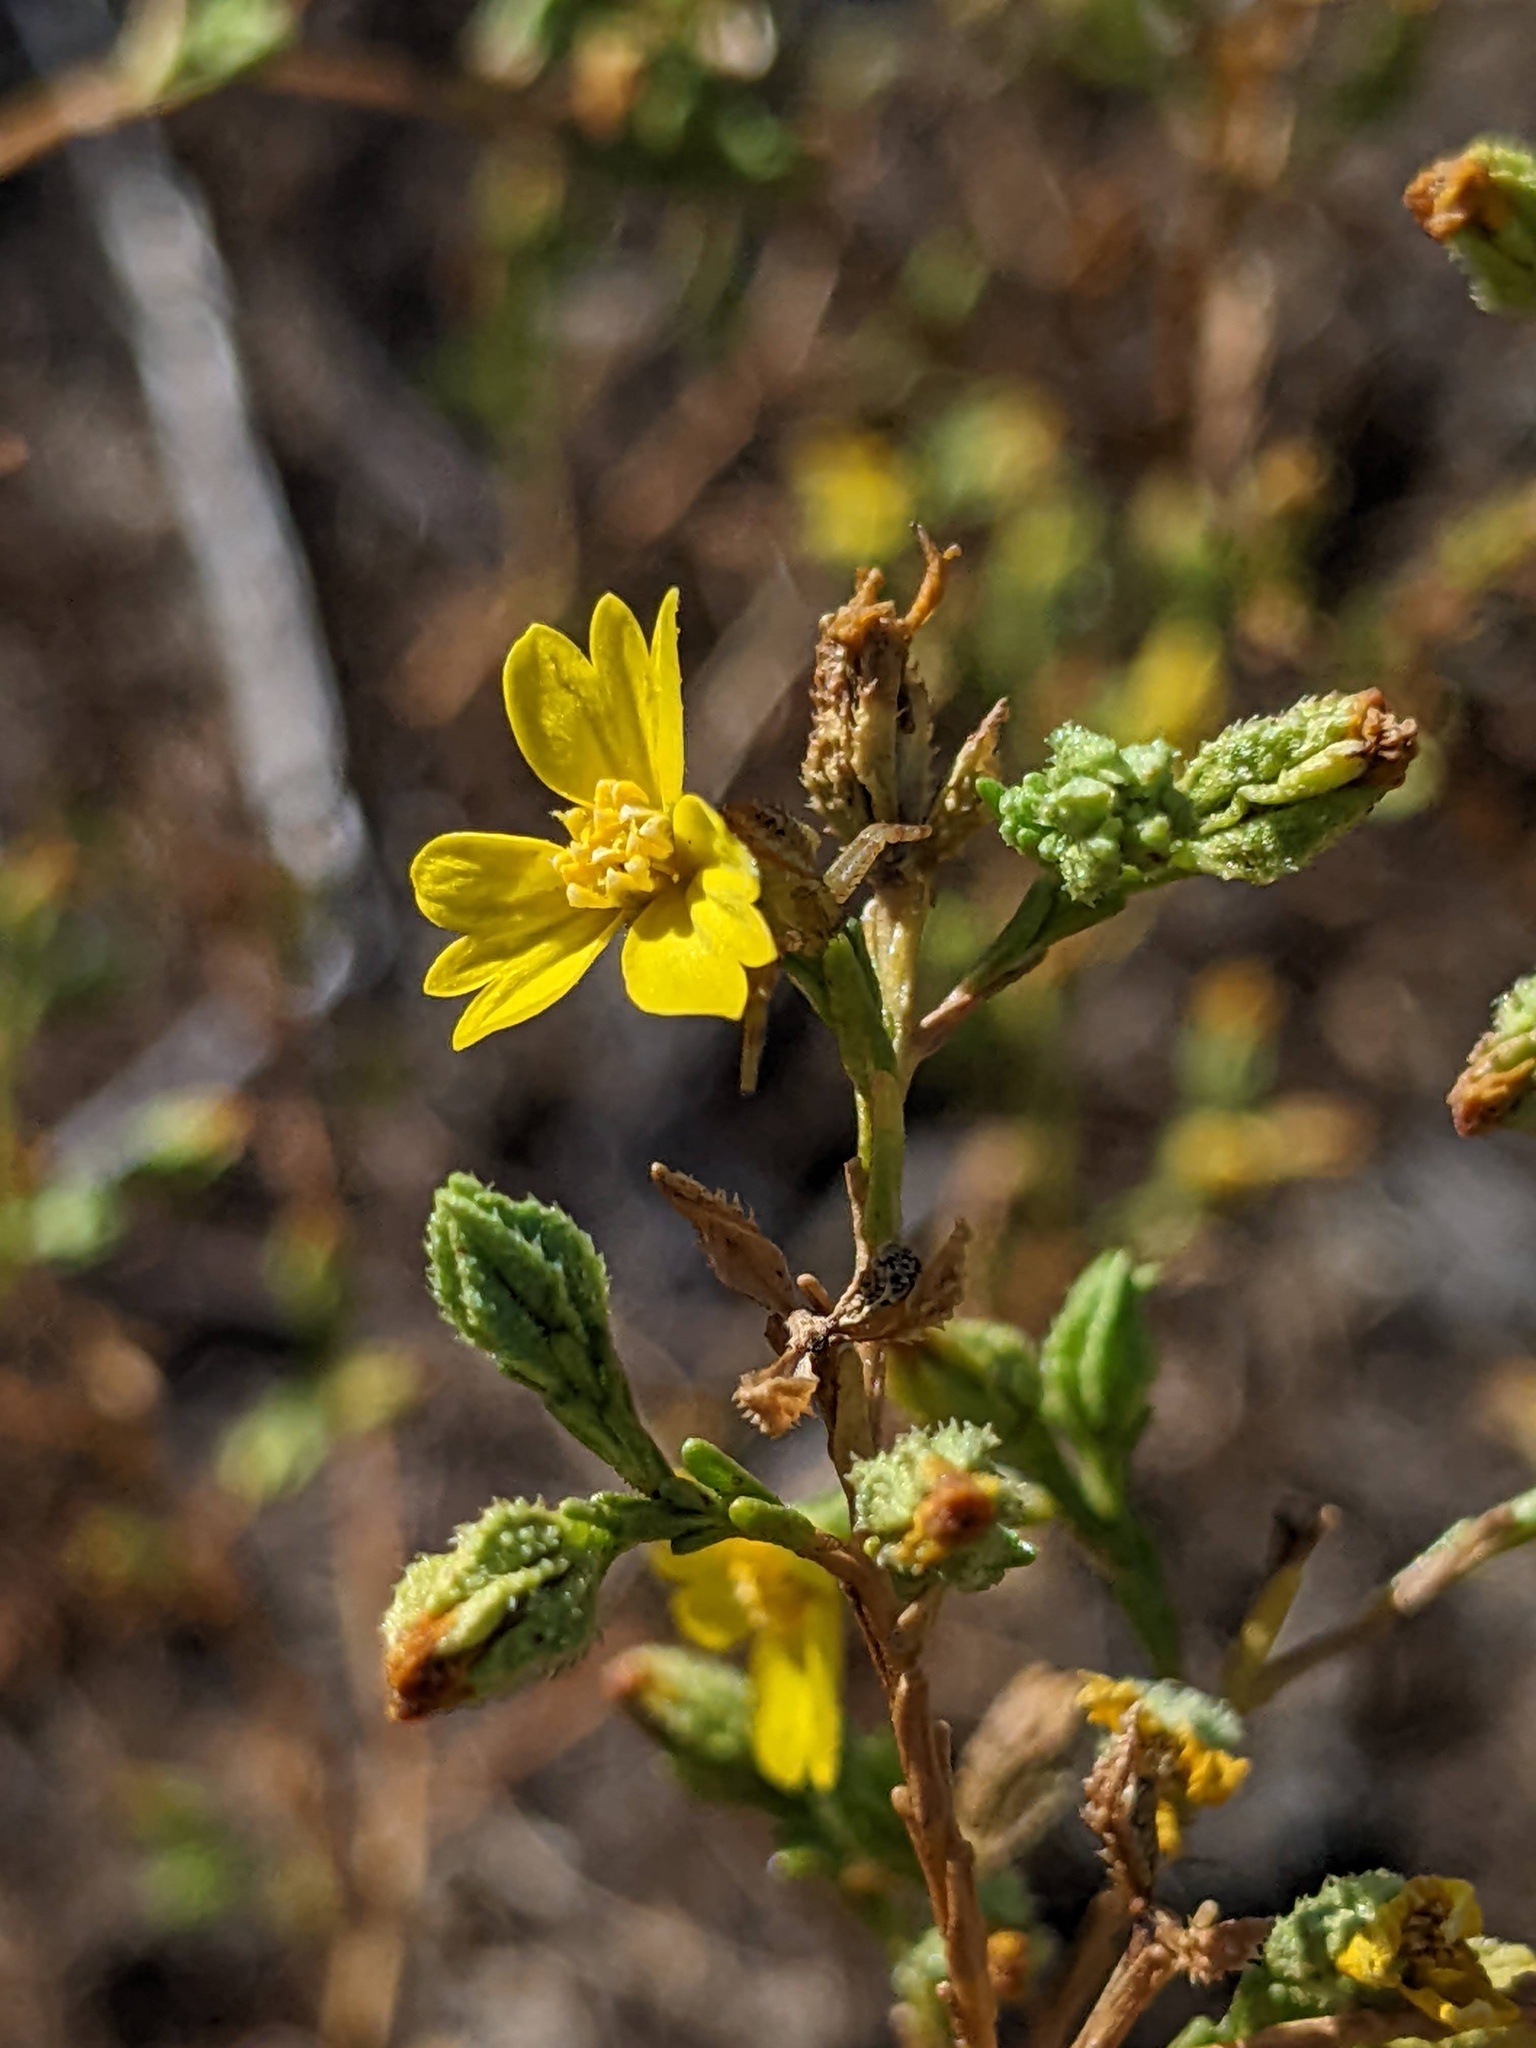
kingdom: Plantae
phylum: Tracheophyta
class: Magnoliopsida
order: Asterales
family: Asteraceae
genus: Deinandra
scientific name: Deinandra lobbii
